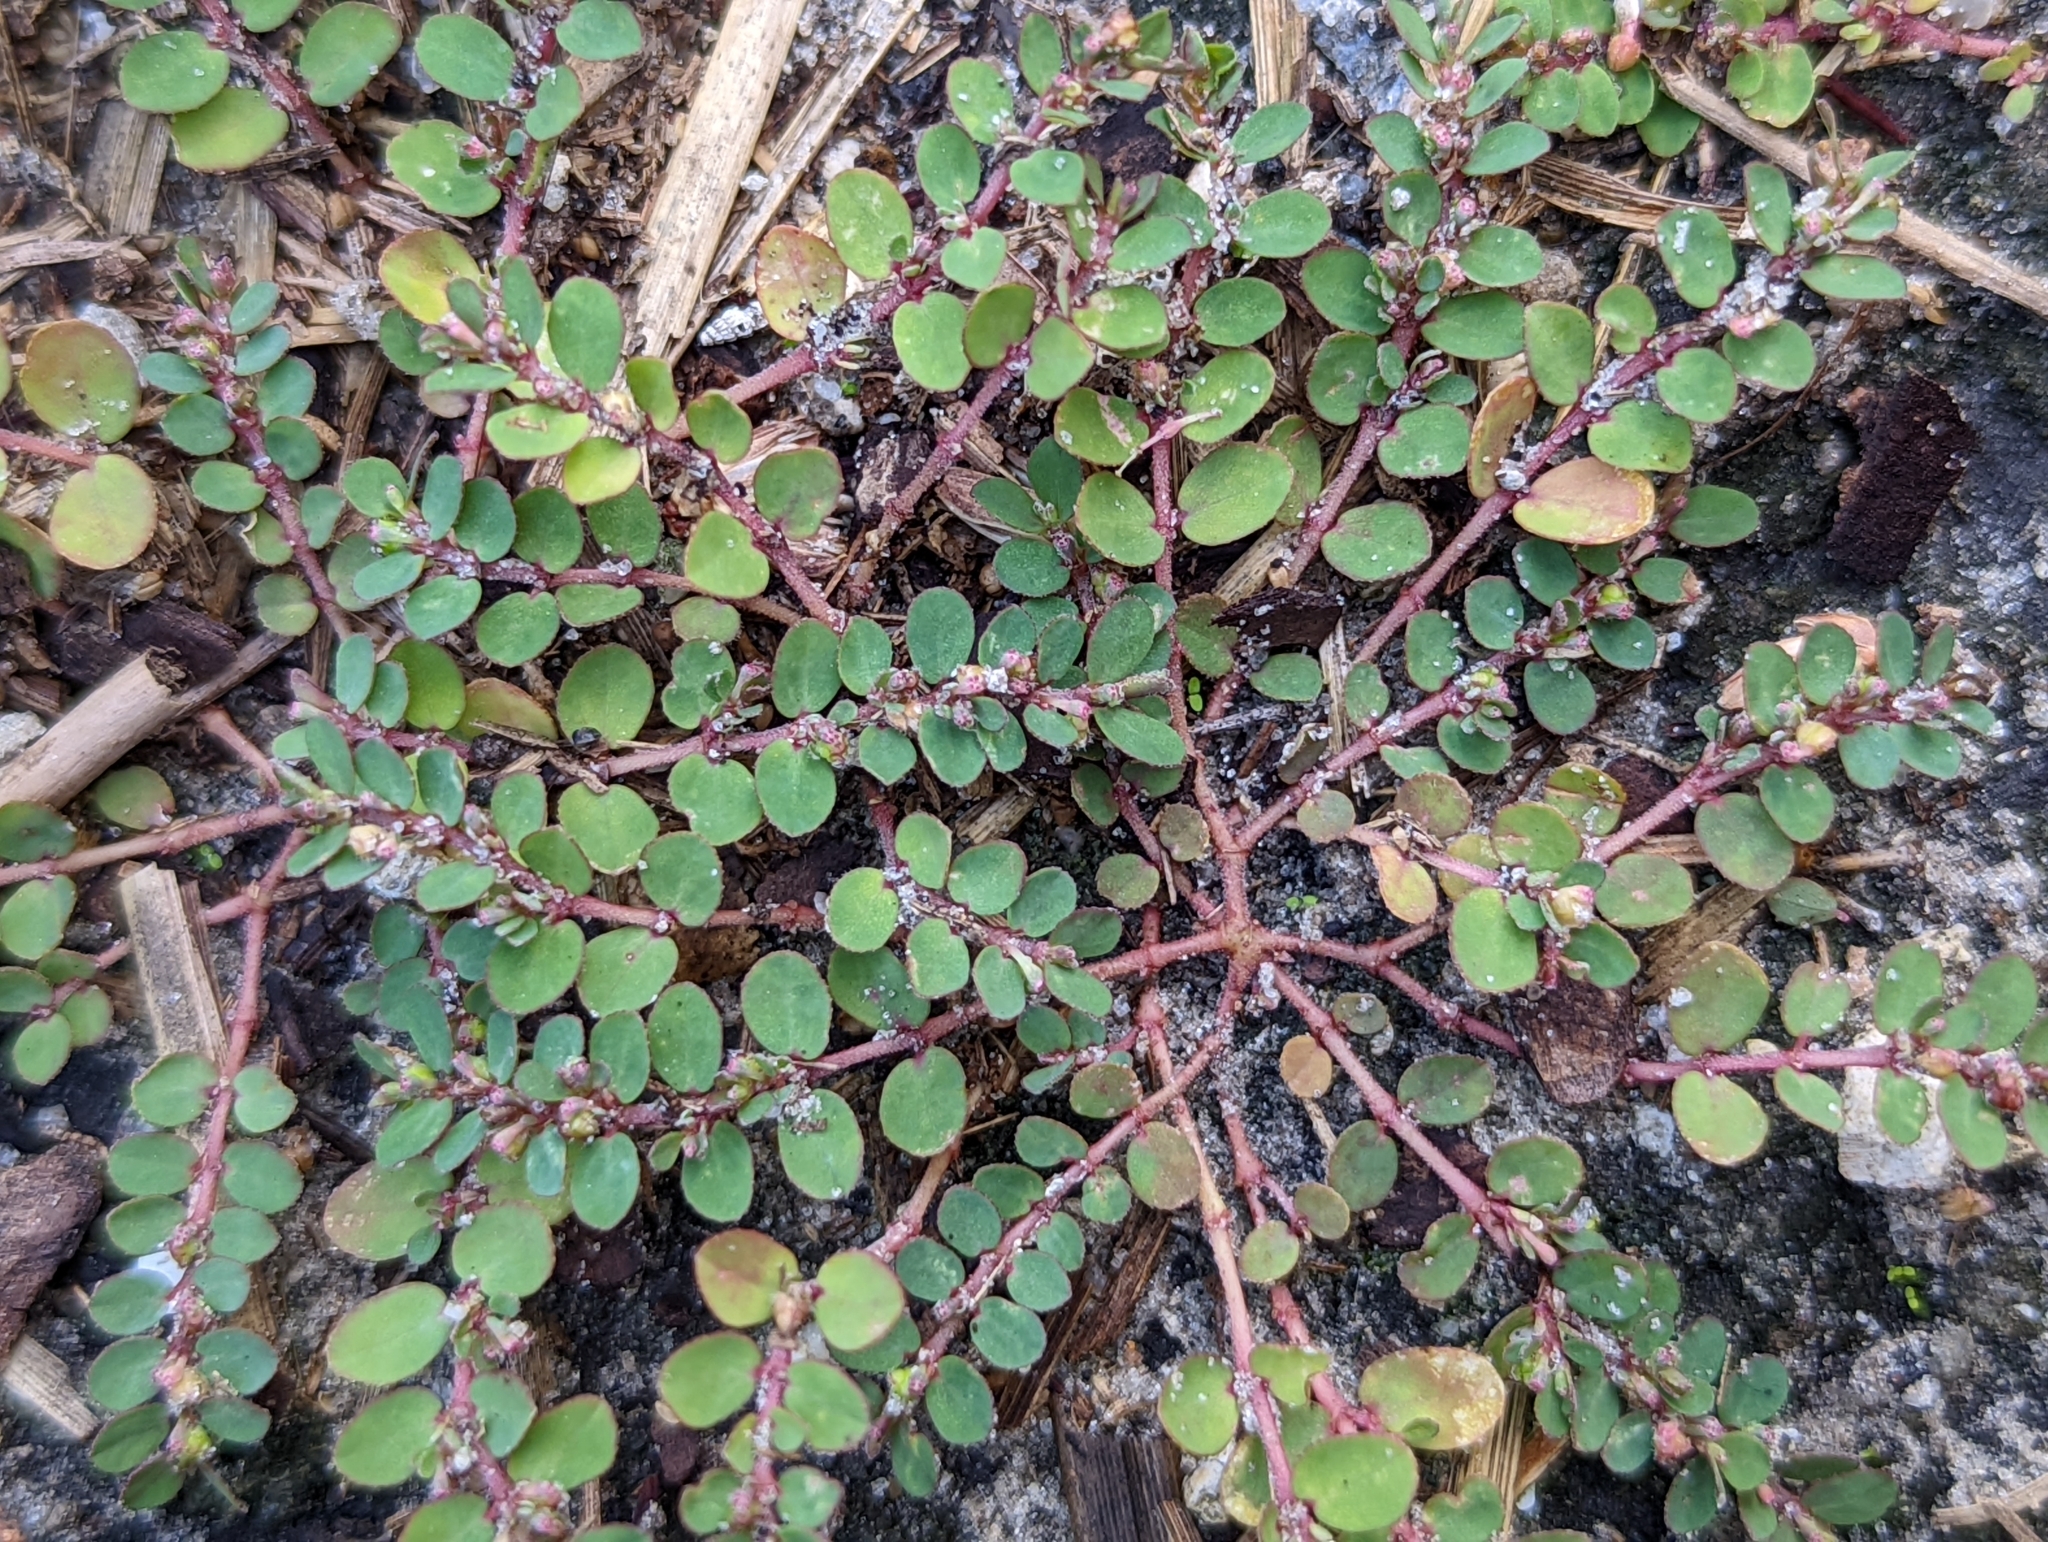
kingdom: Plantae
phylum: Tracheophyta
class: Magnoliopsida
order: Malpighiales
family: Euphorbiaceae
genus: Euphorbia
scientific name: Euphorbia prostrata
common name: Prostrate sandmat
